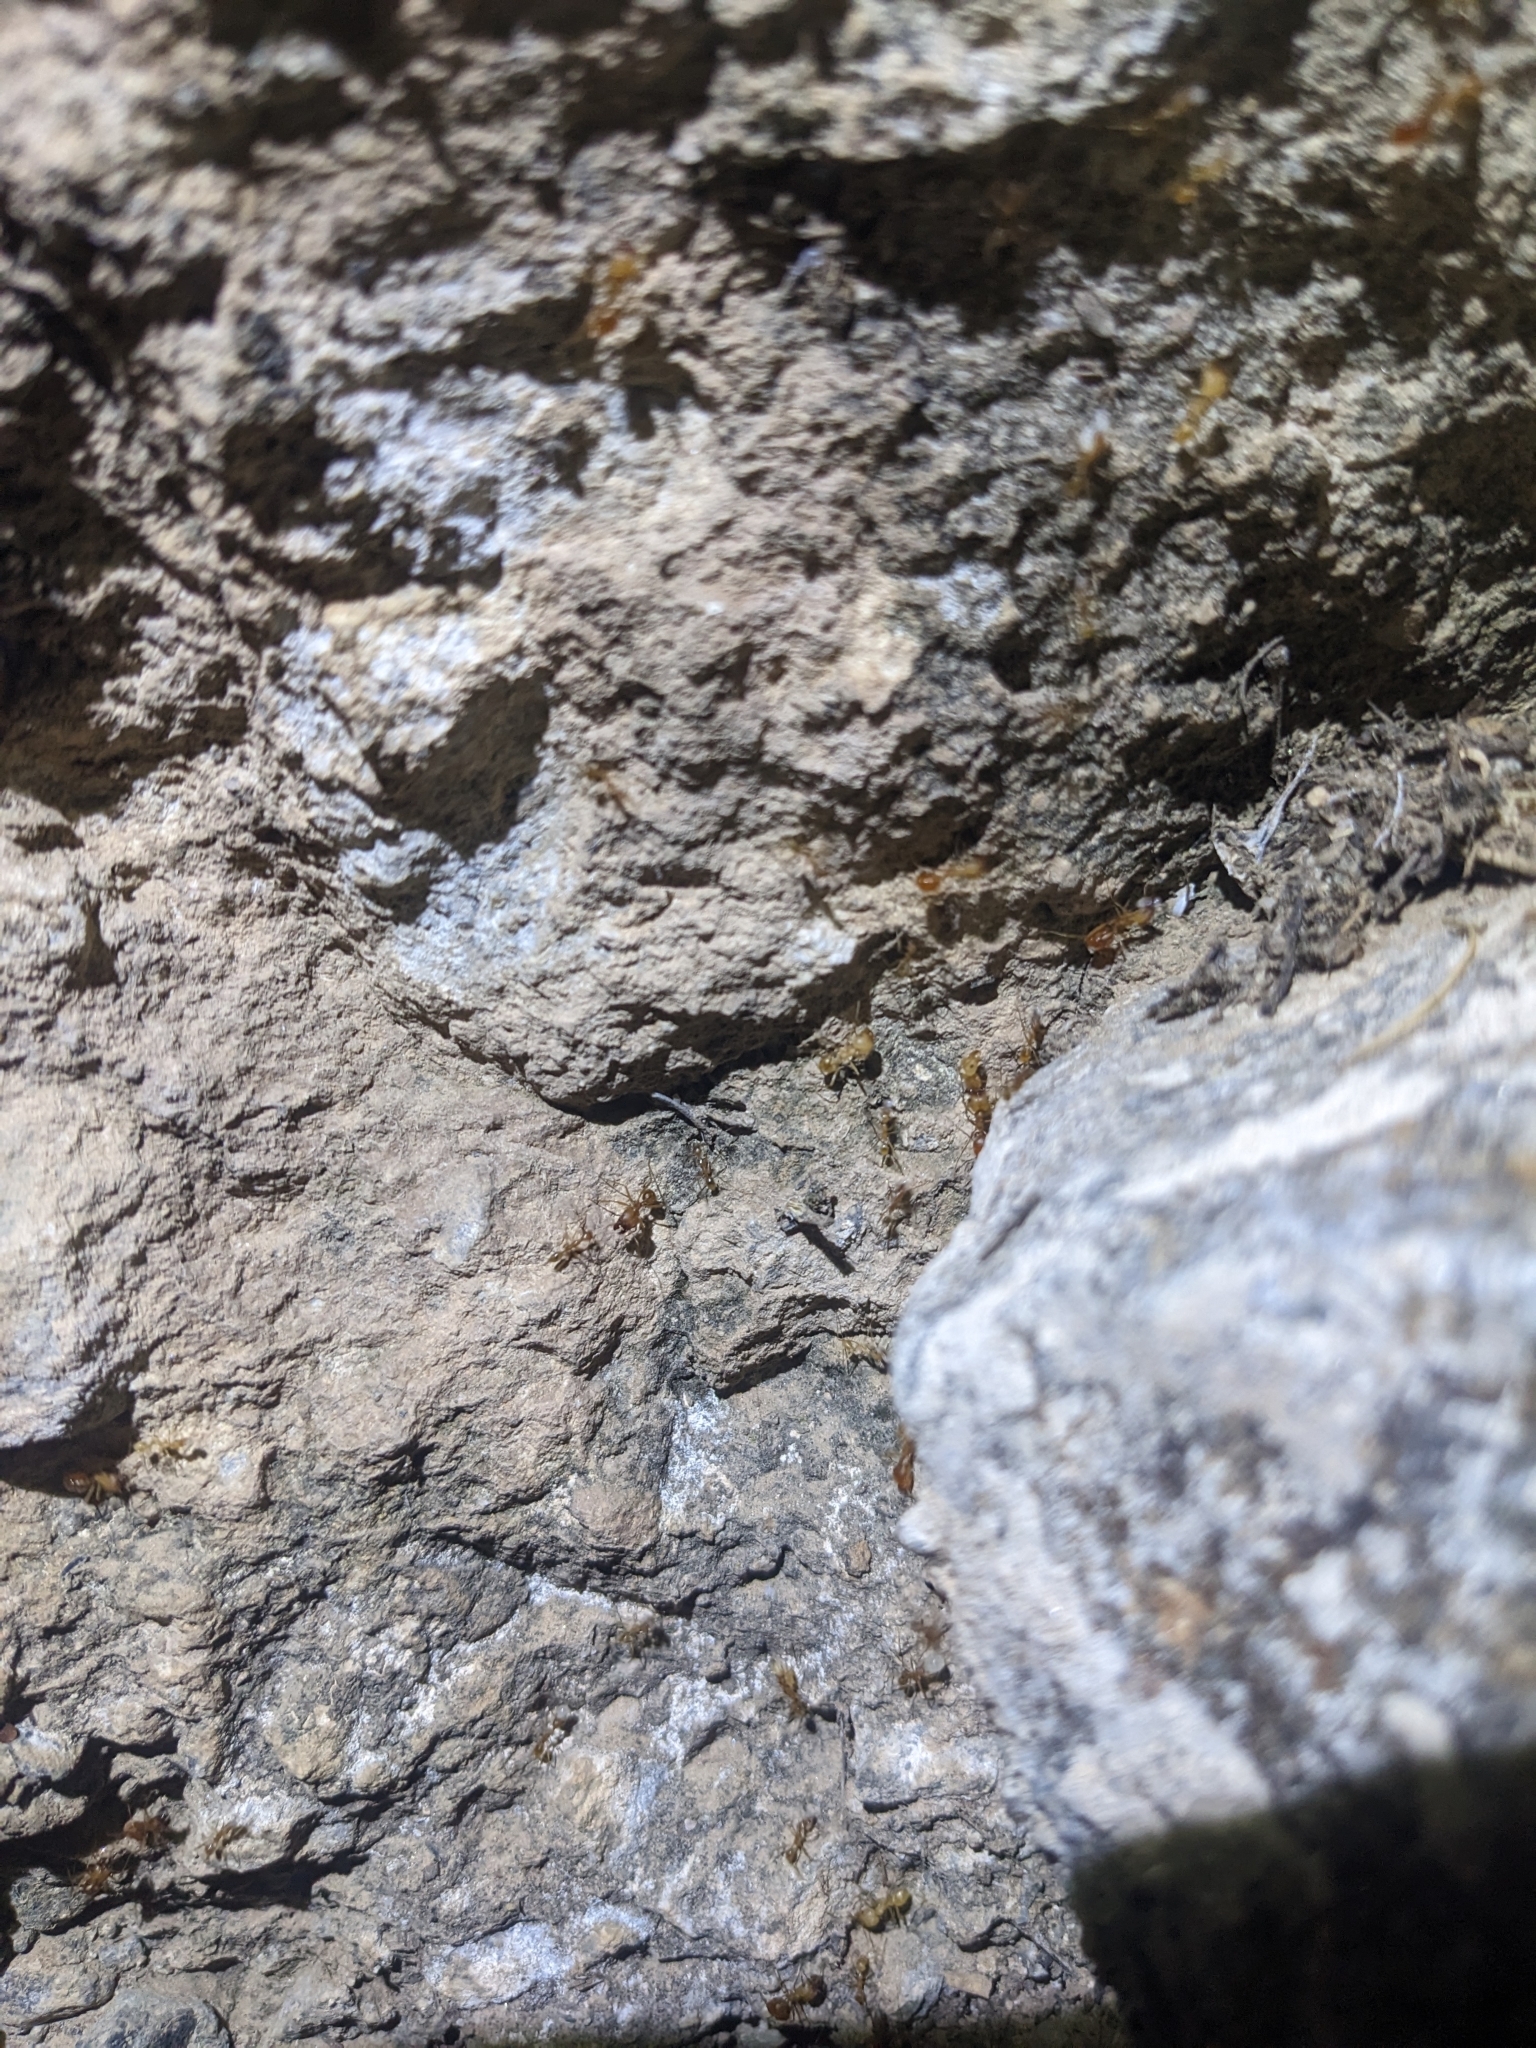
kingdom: Animalia
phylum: Arthropoda
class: Insecta
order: Hymenoptera
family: Formicidae
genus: Pheidole
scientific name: Pheidole vistana
